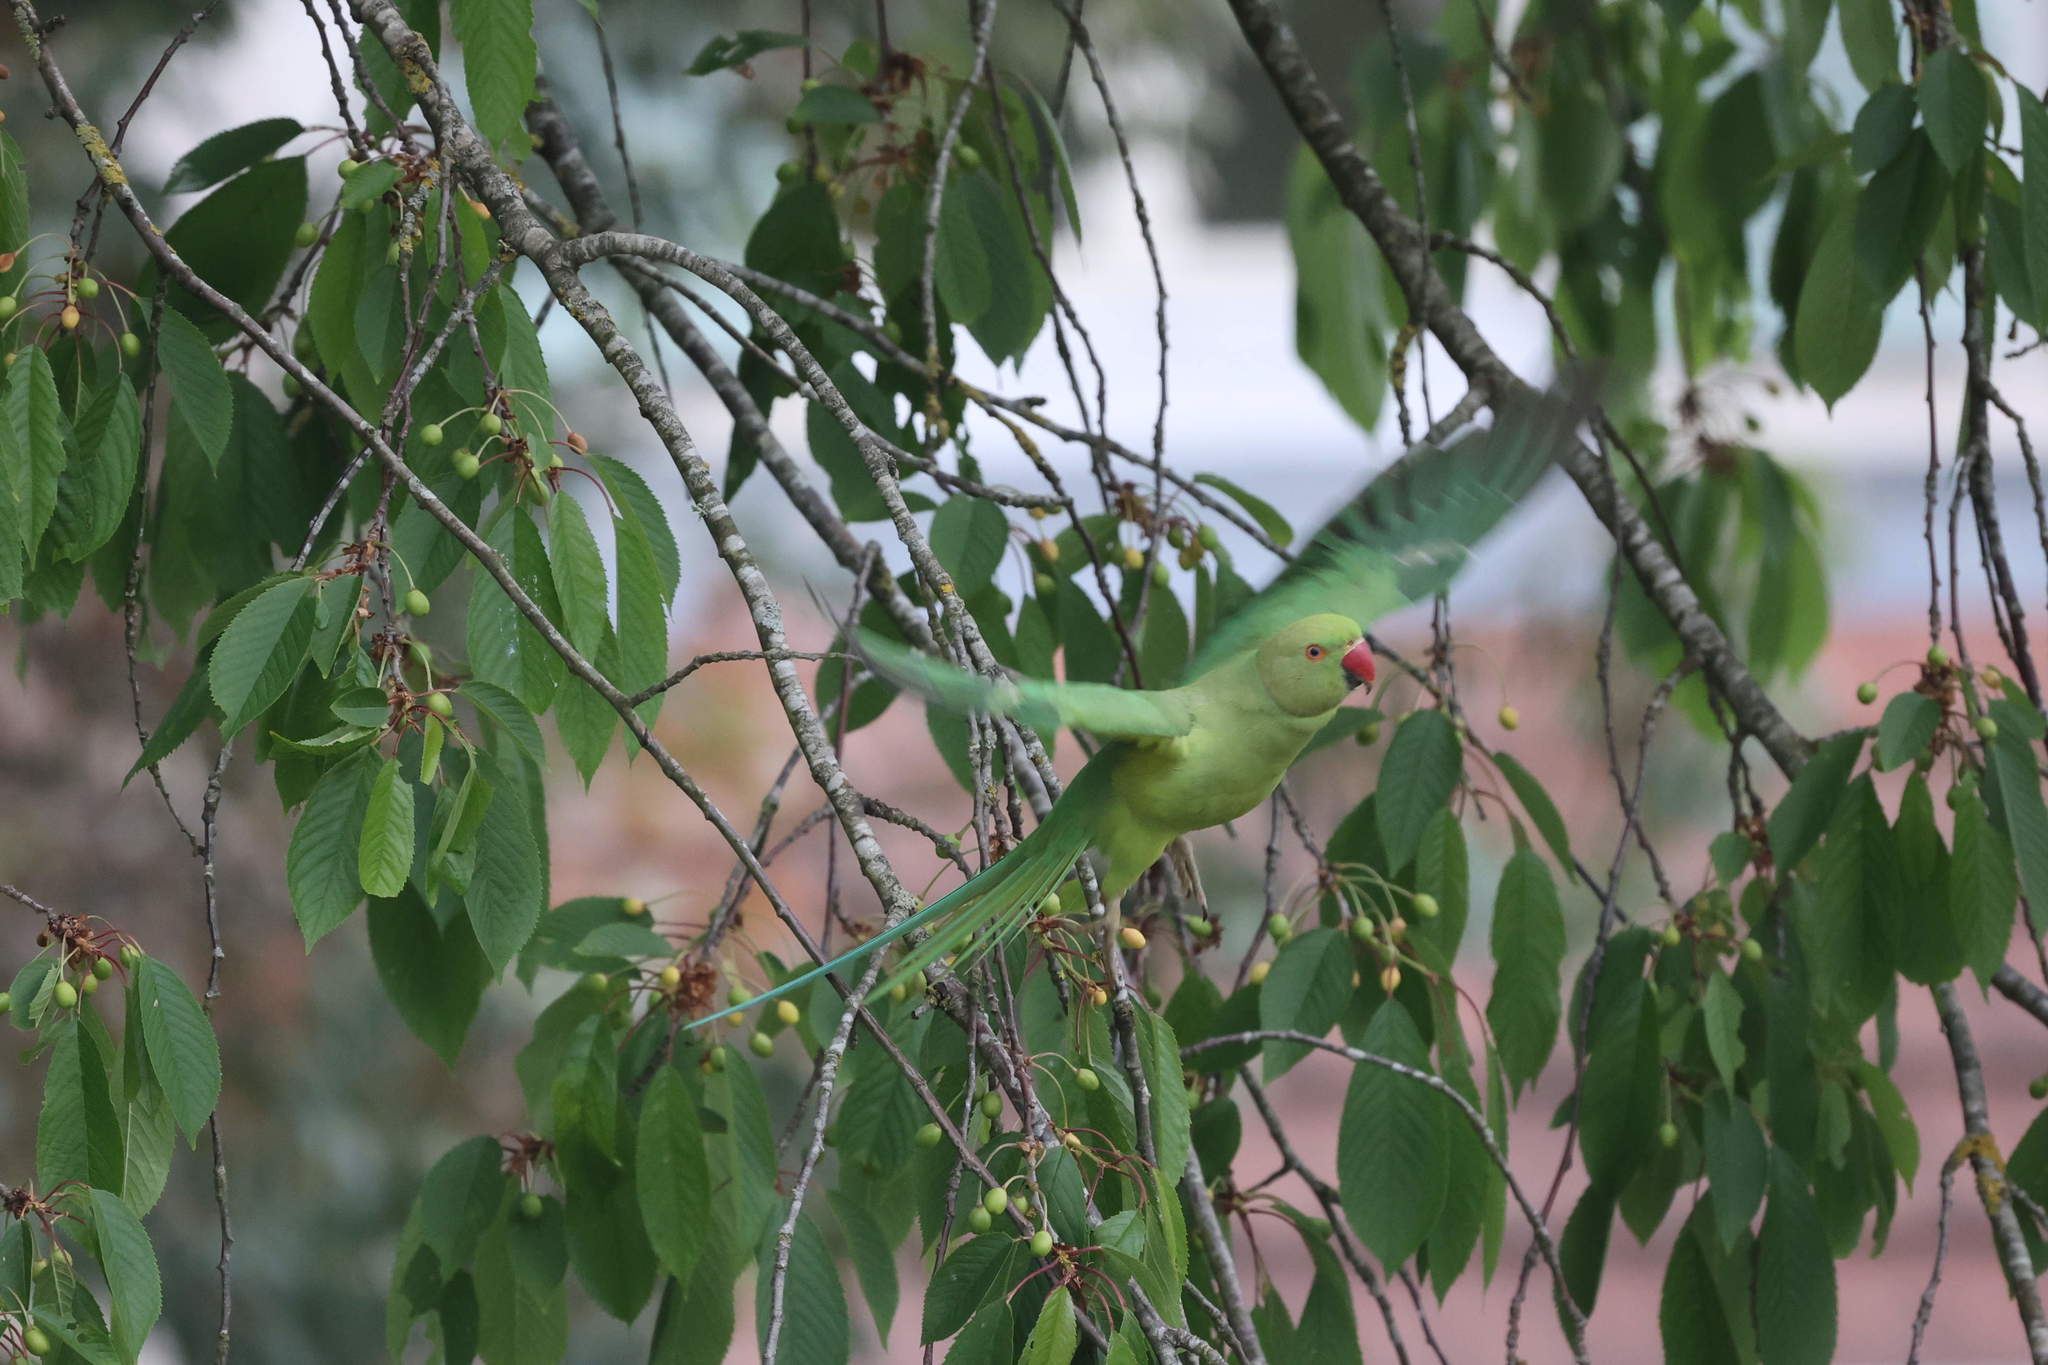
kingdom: Animalia
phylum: Chordata
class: Aves
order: Psittaciformes
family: Psittacidae
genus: Psittacula
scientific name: Psittacula krameri
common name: Rose-ringed parakeet
